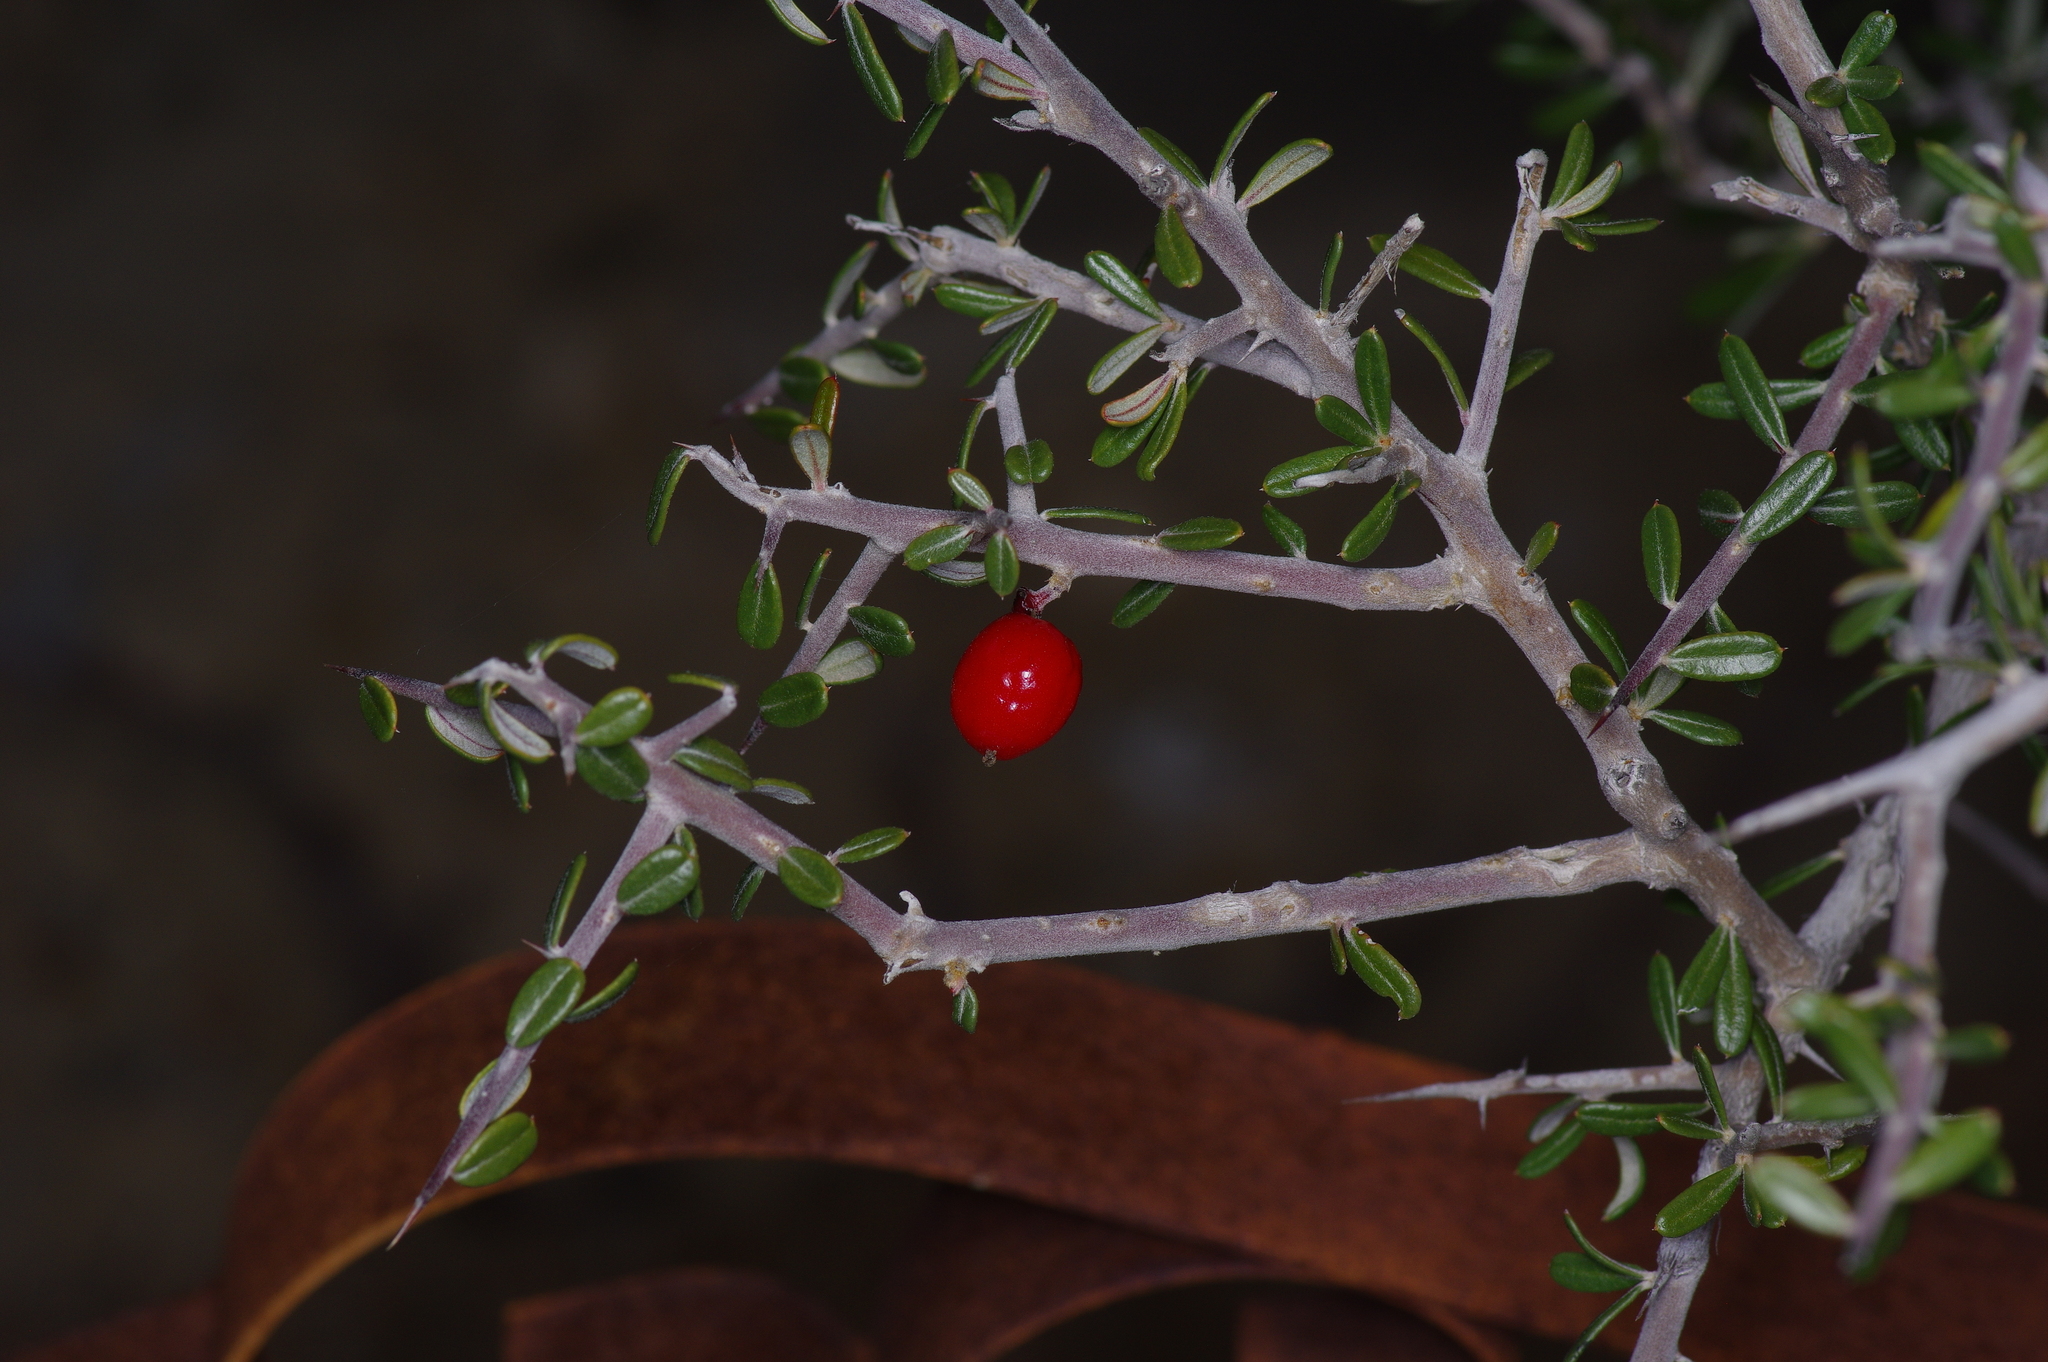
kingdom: Plantae
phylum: Tracheophyta
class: Magnoliopsida
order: Sapindales
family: Simaroubaceae
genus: Castela
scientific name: Castela erecta
